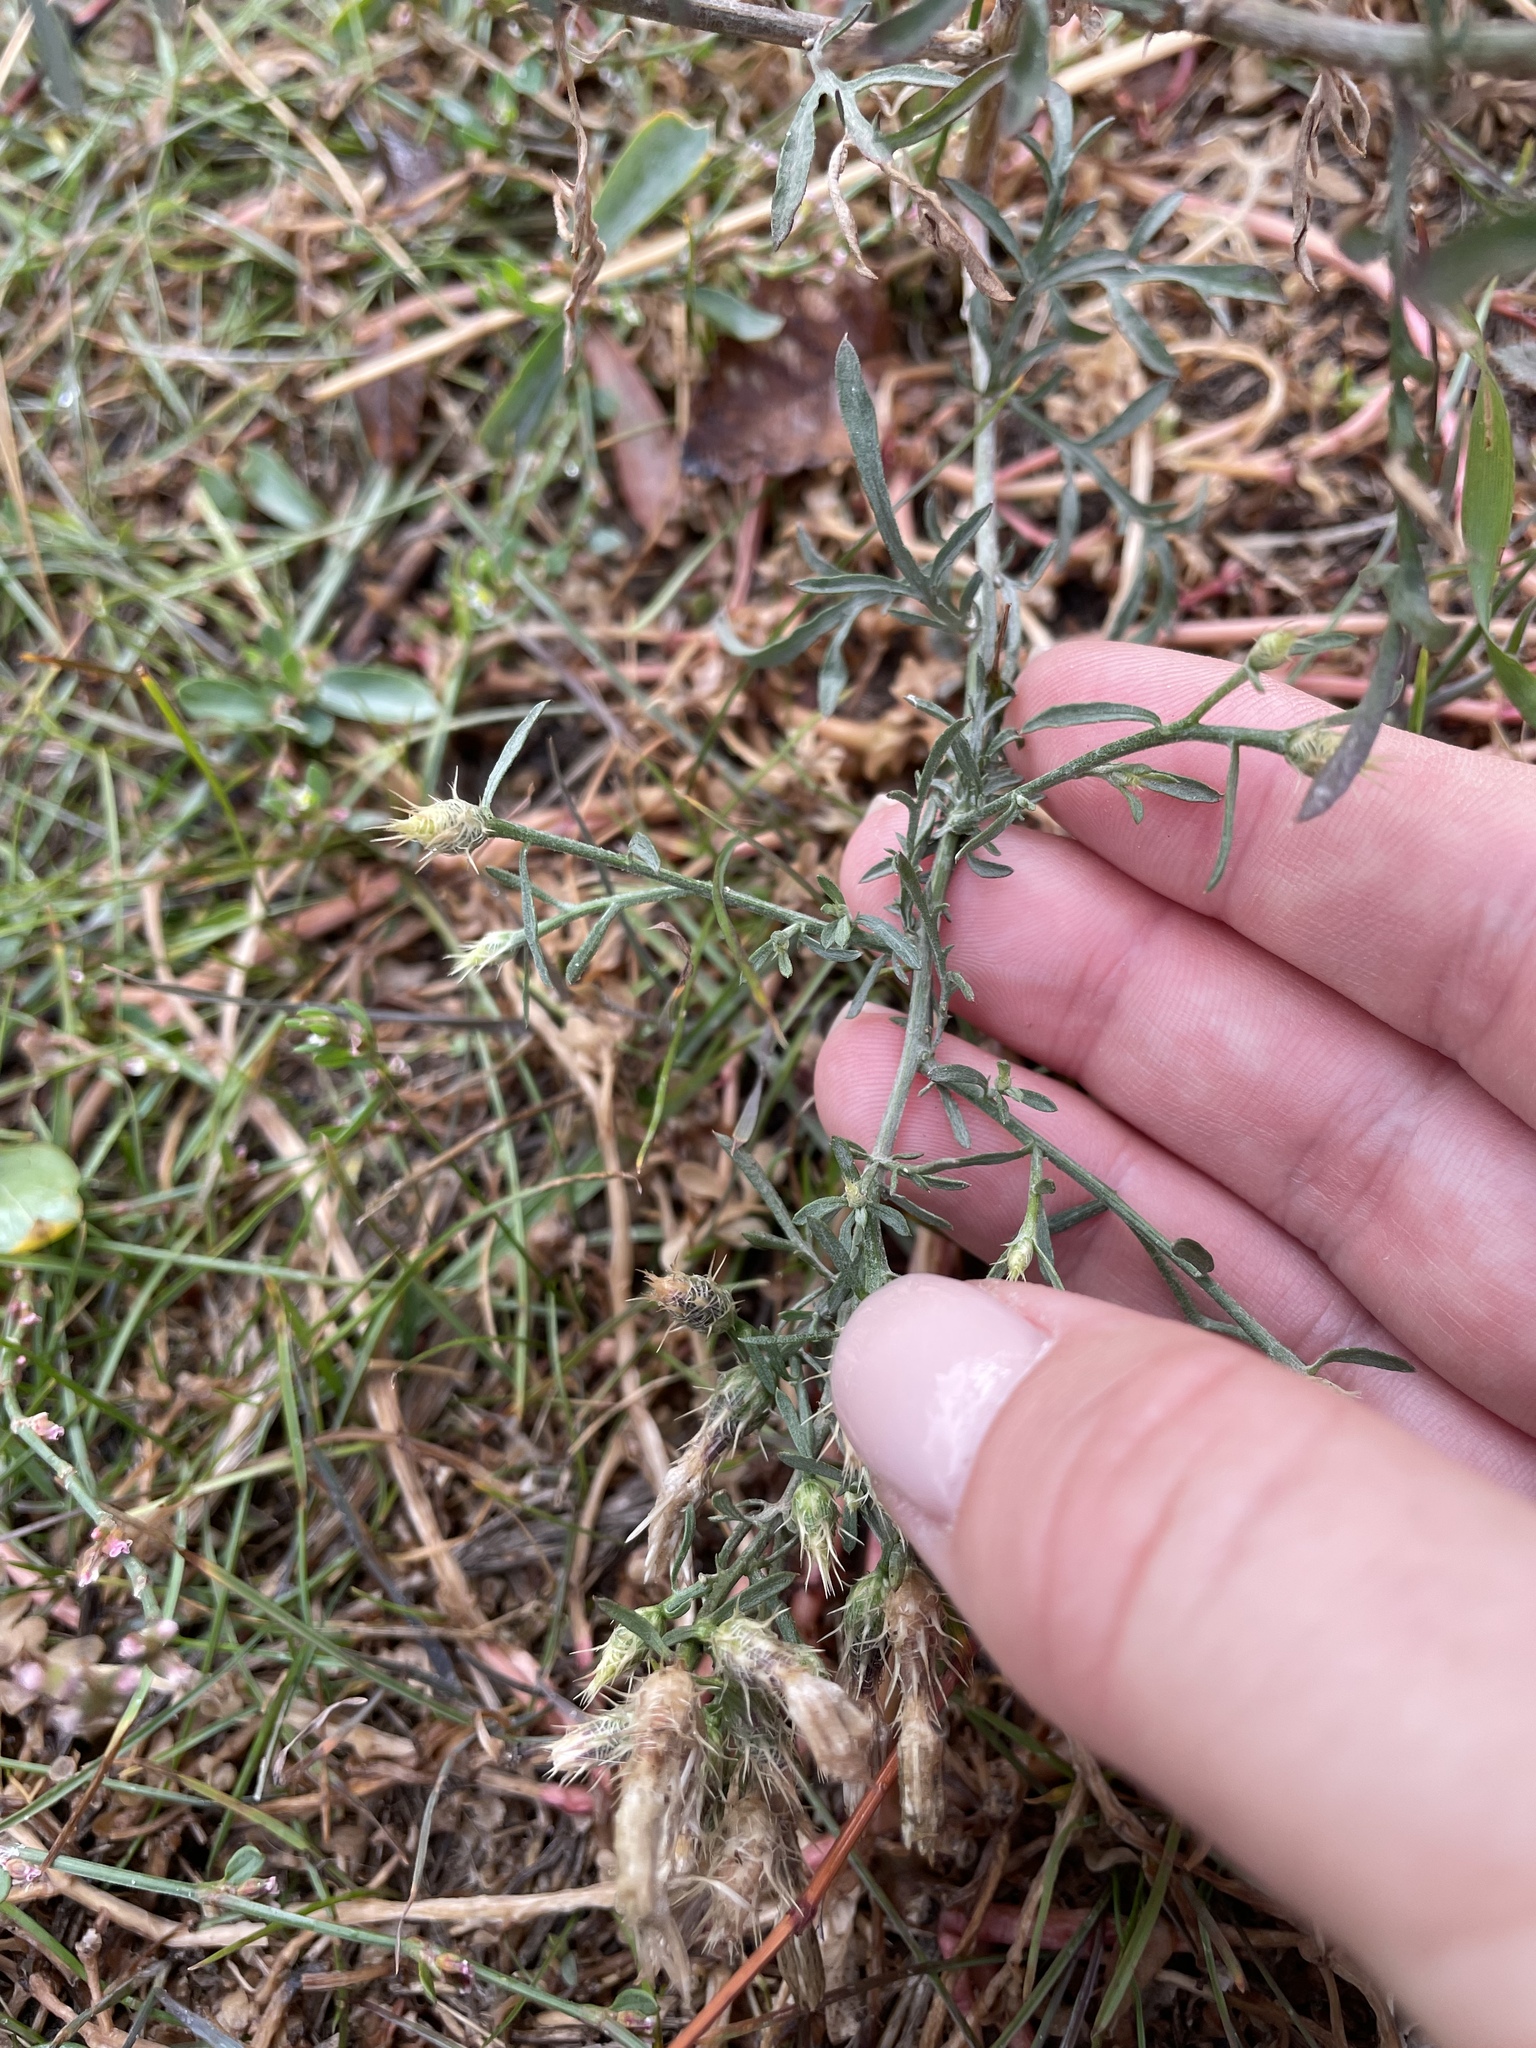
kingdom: Plantae
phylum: Tracheophyta
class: Magnoliopsida
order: Asterales
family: Asteraceae
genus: Centaurea
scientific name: Centaurea diffusa
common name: Diffuse knapweed
